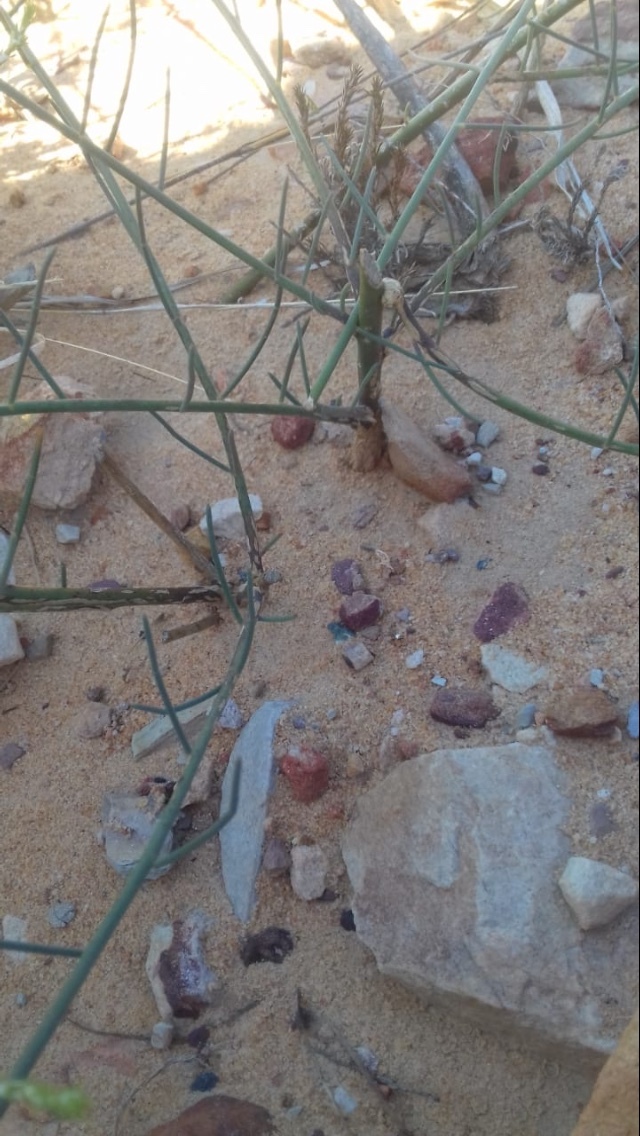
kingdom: Plantae
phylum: Tracheophyta
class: Magnoliopsida
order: Fabales
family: Fabaceae
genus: Lebeckia
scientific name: Lebeckia contaminata
